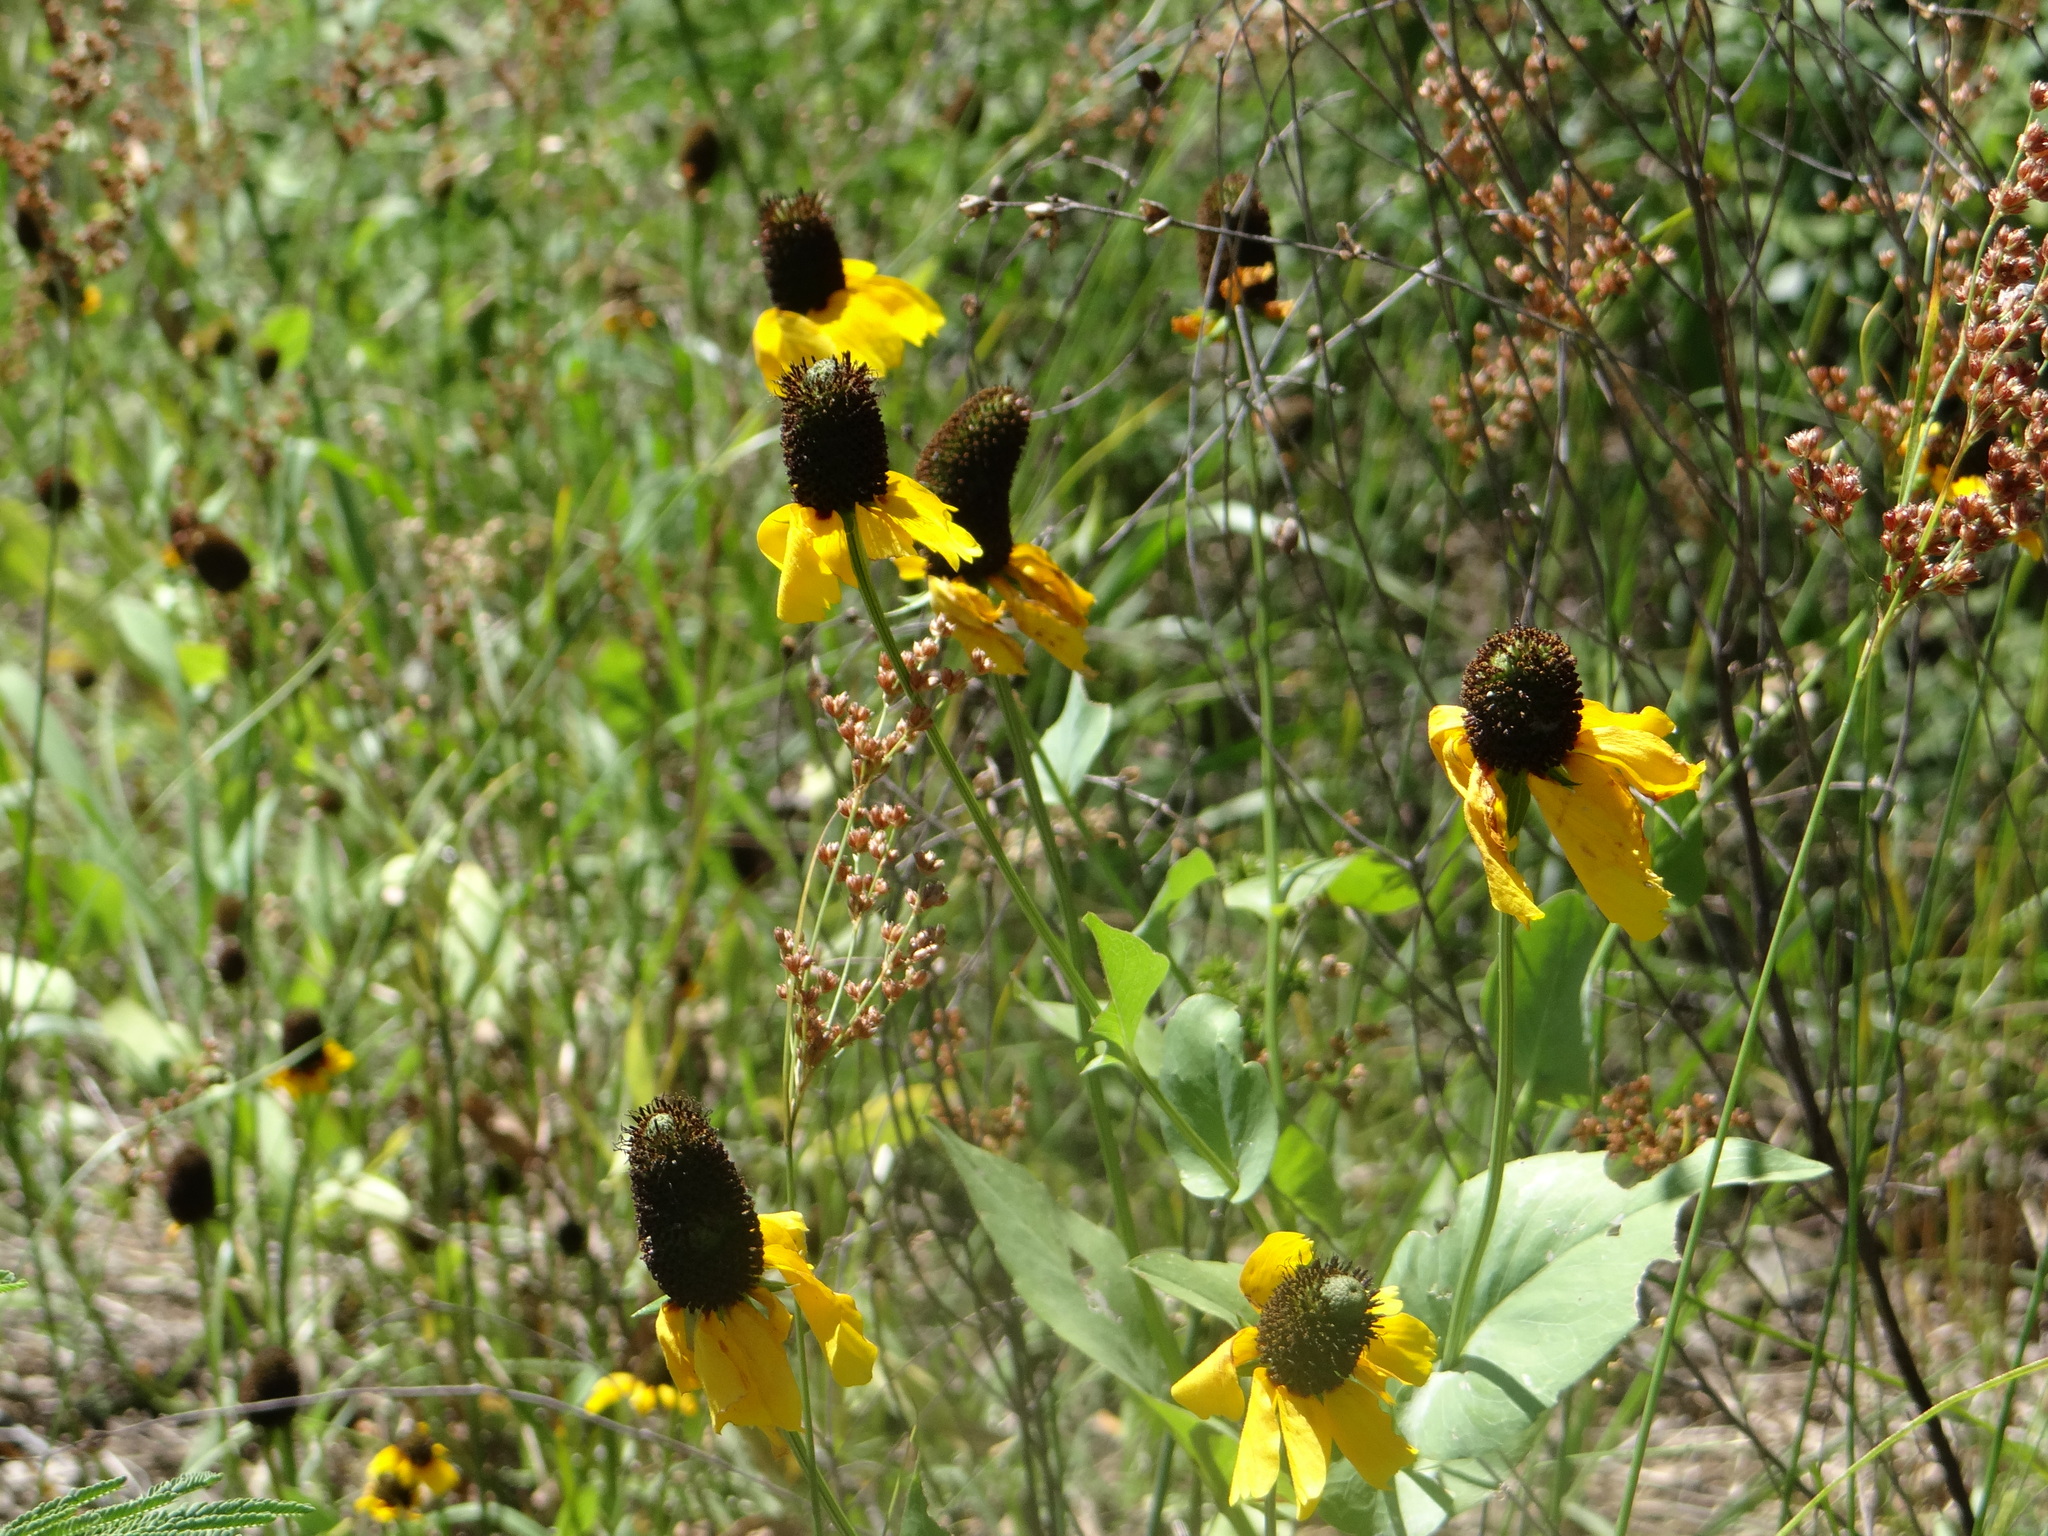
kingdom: Plantae
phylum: Tracheophyta
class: Magnoliopsida
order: Asterales
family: Asteraceae
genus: Rudbeckia
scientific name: Rudbeckia amplexicaulis
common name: Clasping-leaf coneflower
